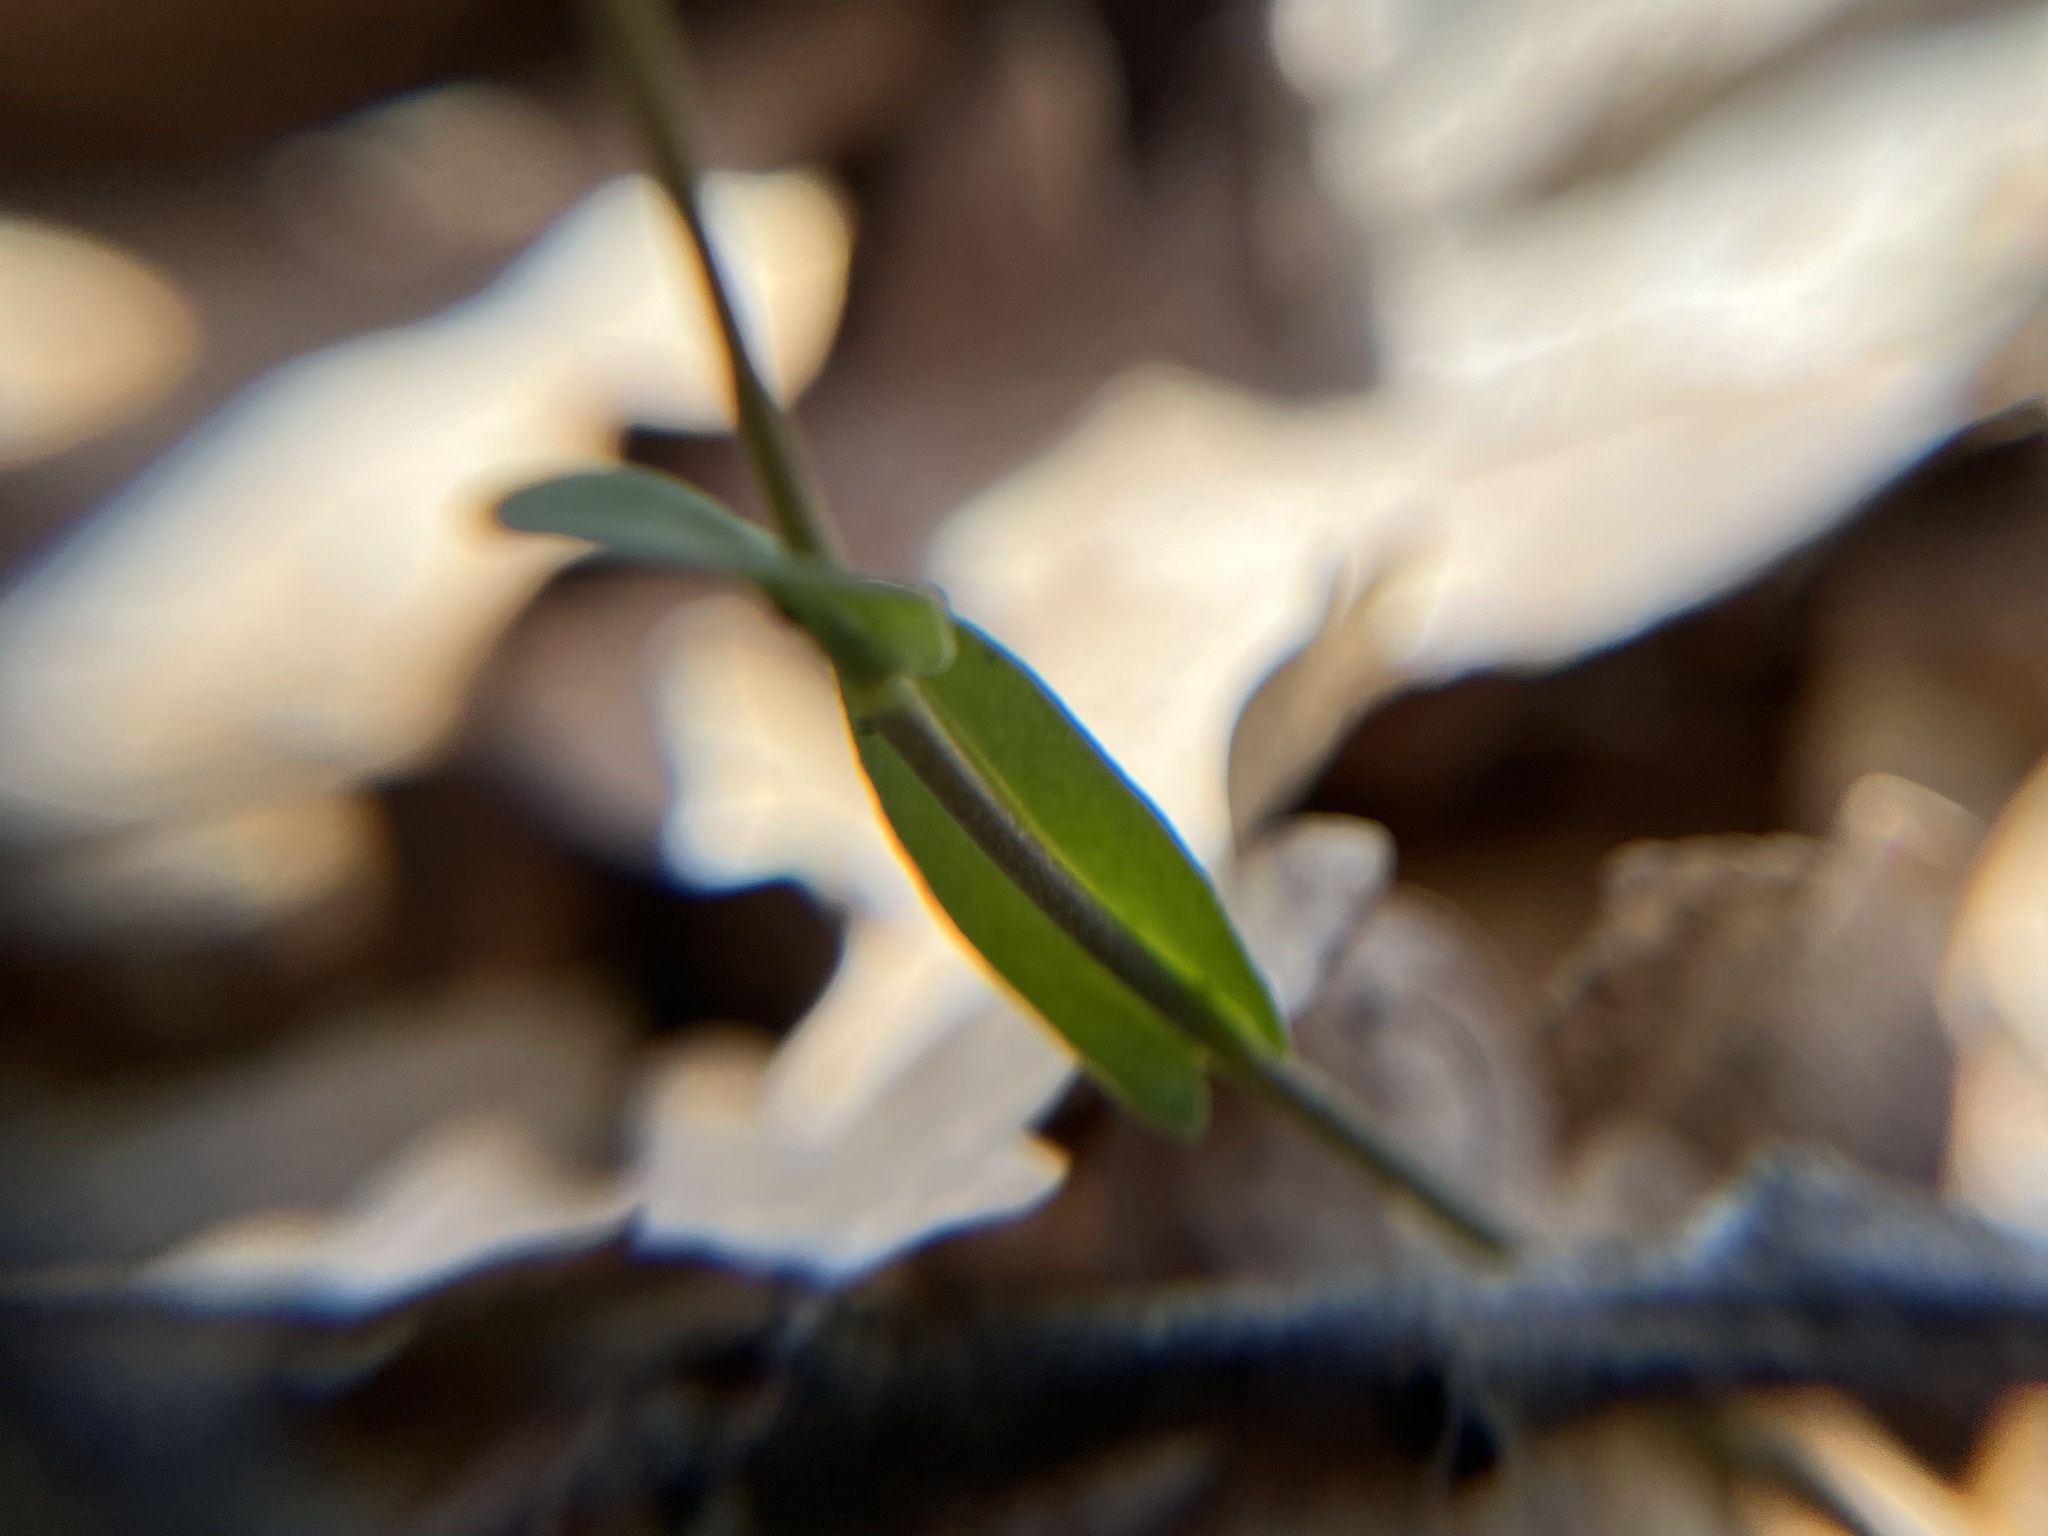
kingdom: Plantae
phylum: Tracheophyta
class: Magnoliopsida
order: Brassicales
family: Brassicaceae
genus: Noccaea
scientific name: Noccaea montana
